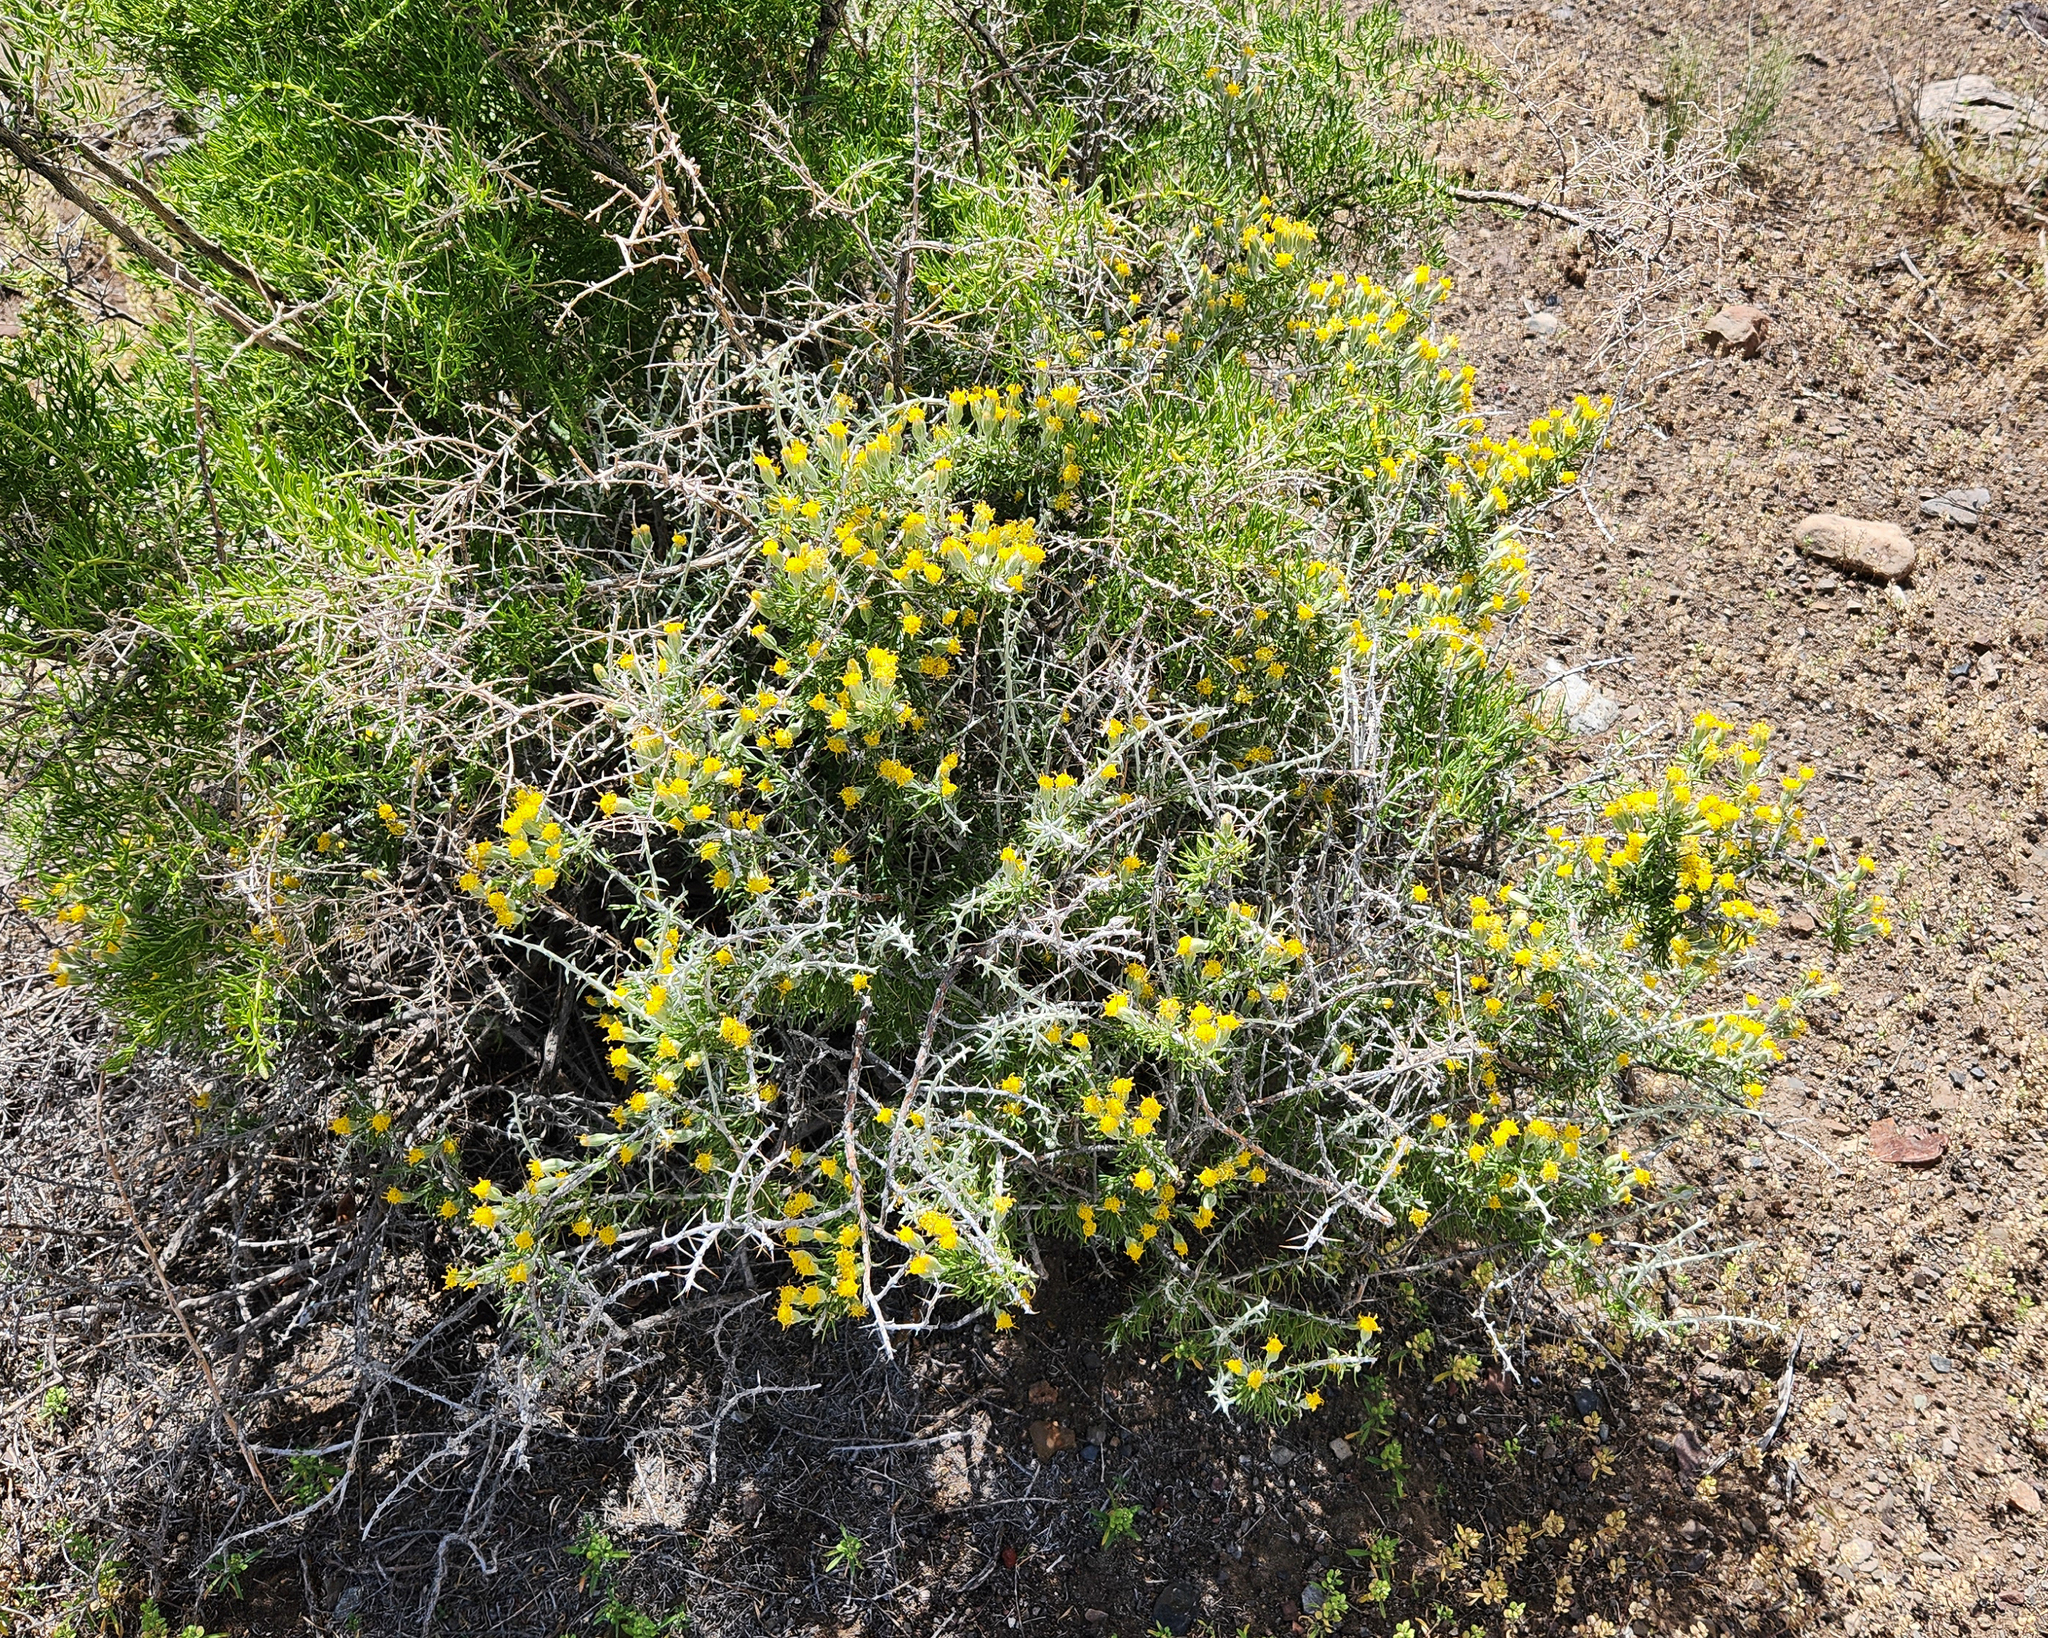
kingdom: Plantae
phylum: Tracheophyta
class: Magnoliopsida
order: Asterales
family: Asteraceae
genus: Tetradymia
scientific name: Tetradymia spinosa
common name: Thorny horsebrush
